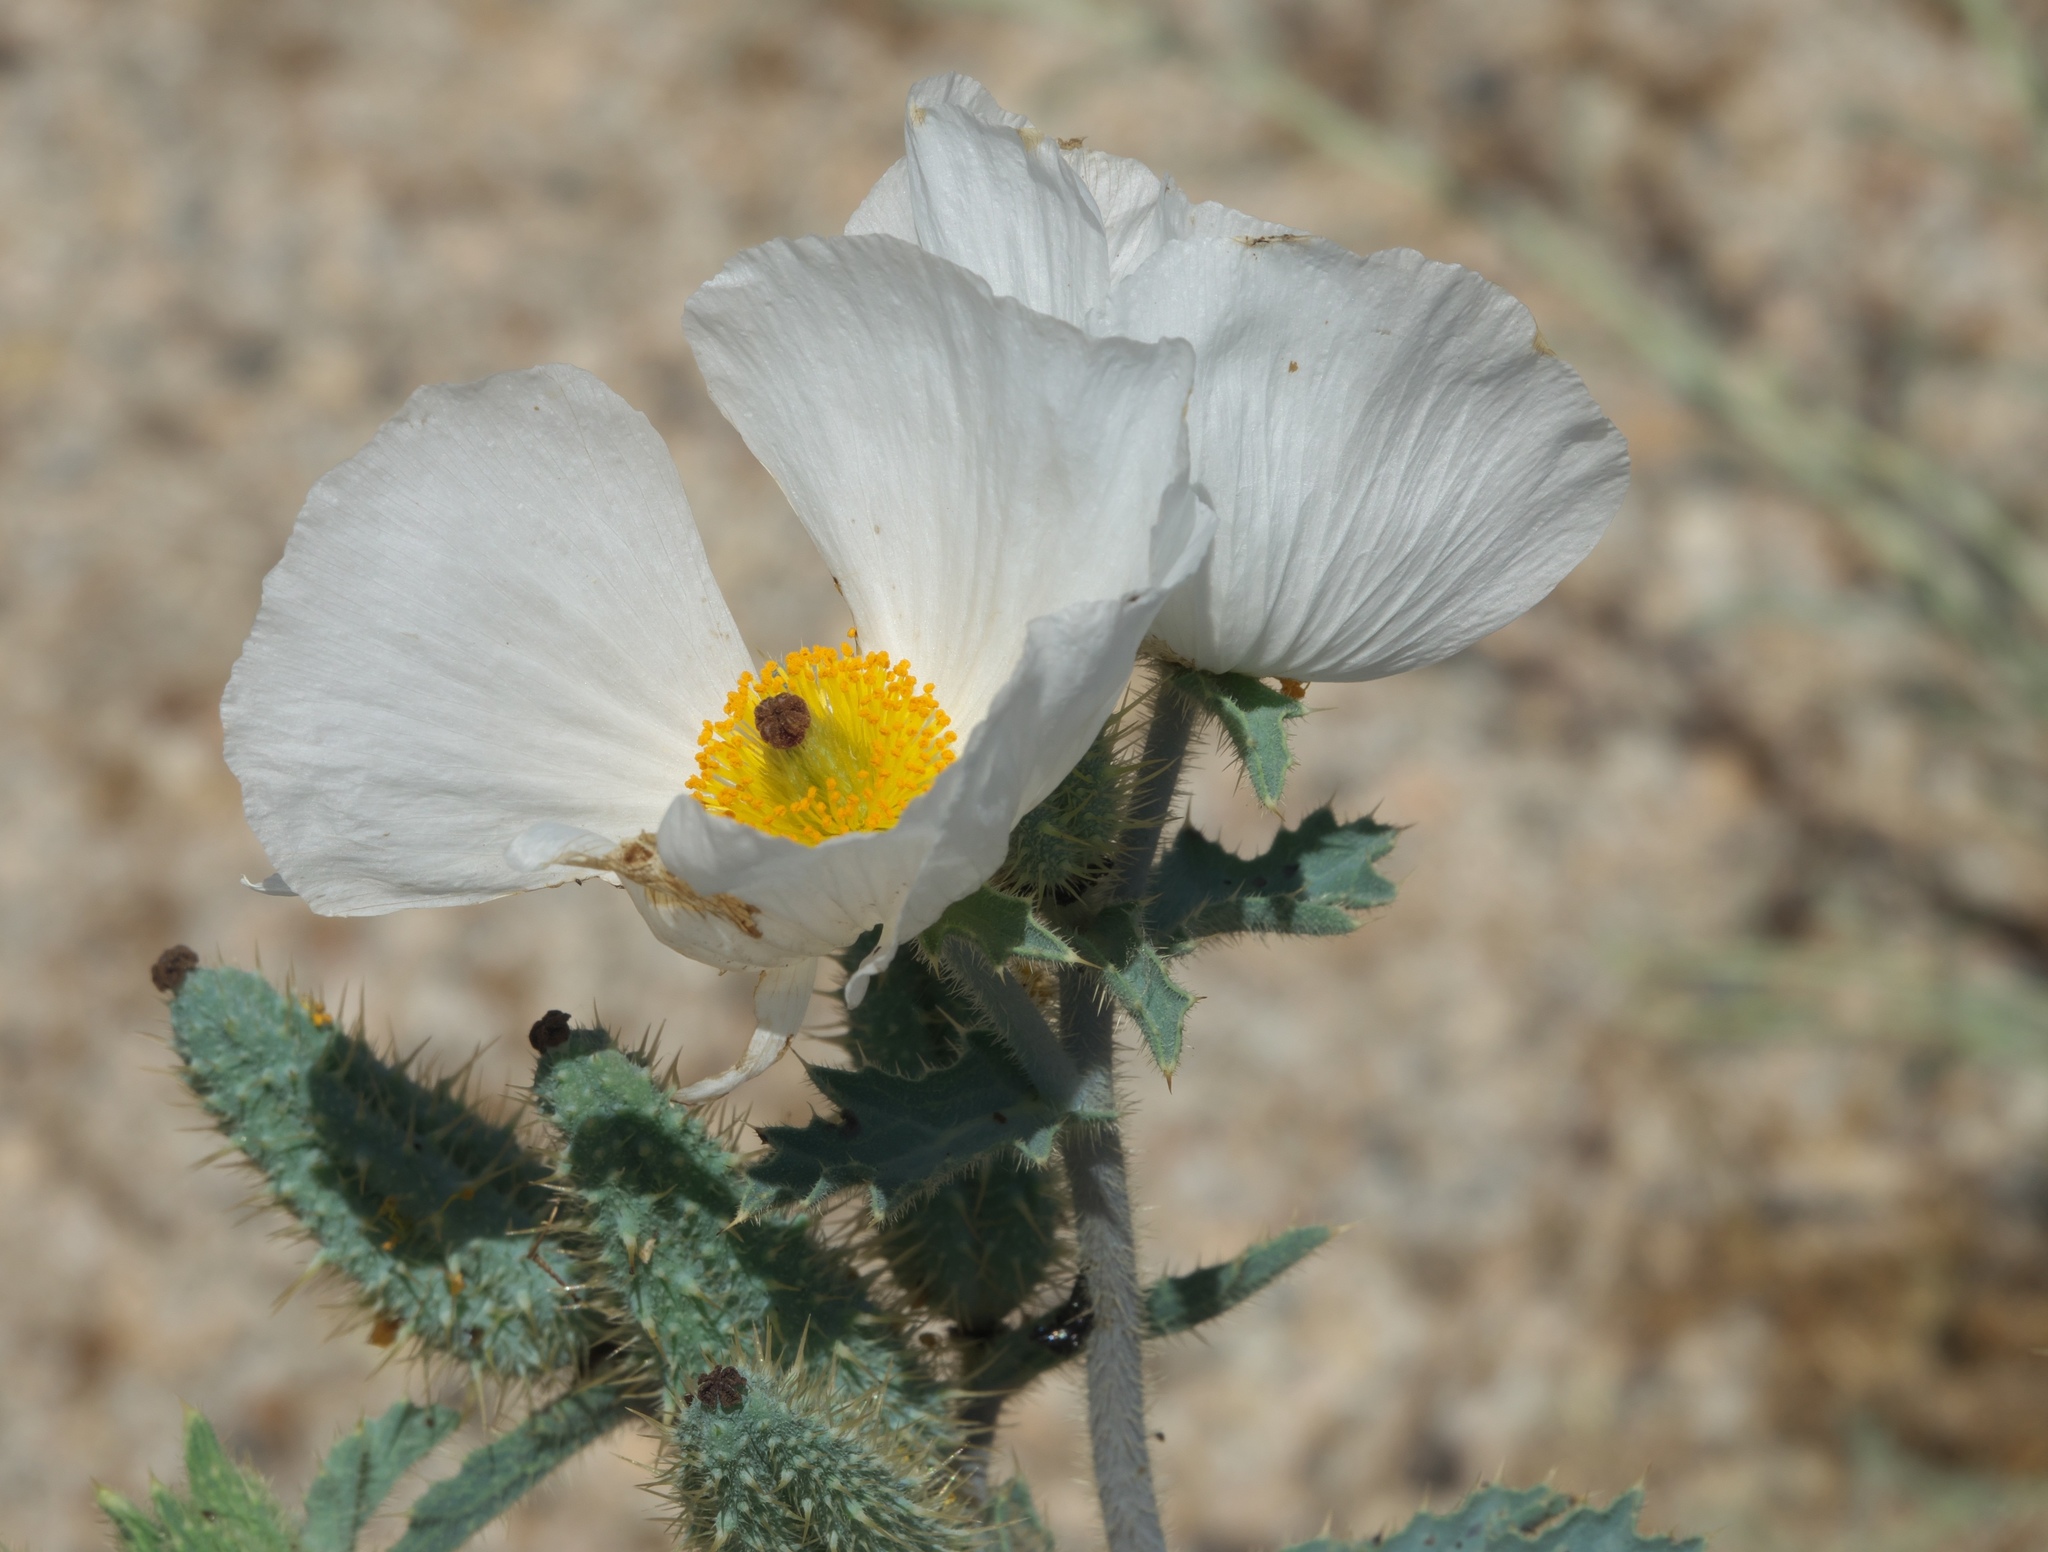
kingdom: Plantae
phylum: Tracheophyta
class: Magnoliopsida
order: Ranunculales
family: Papaveraceae
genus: Argemone
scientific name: Argemone munita
